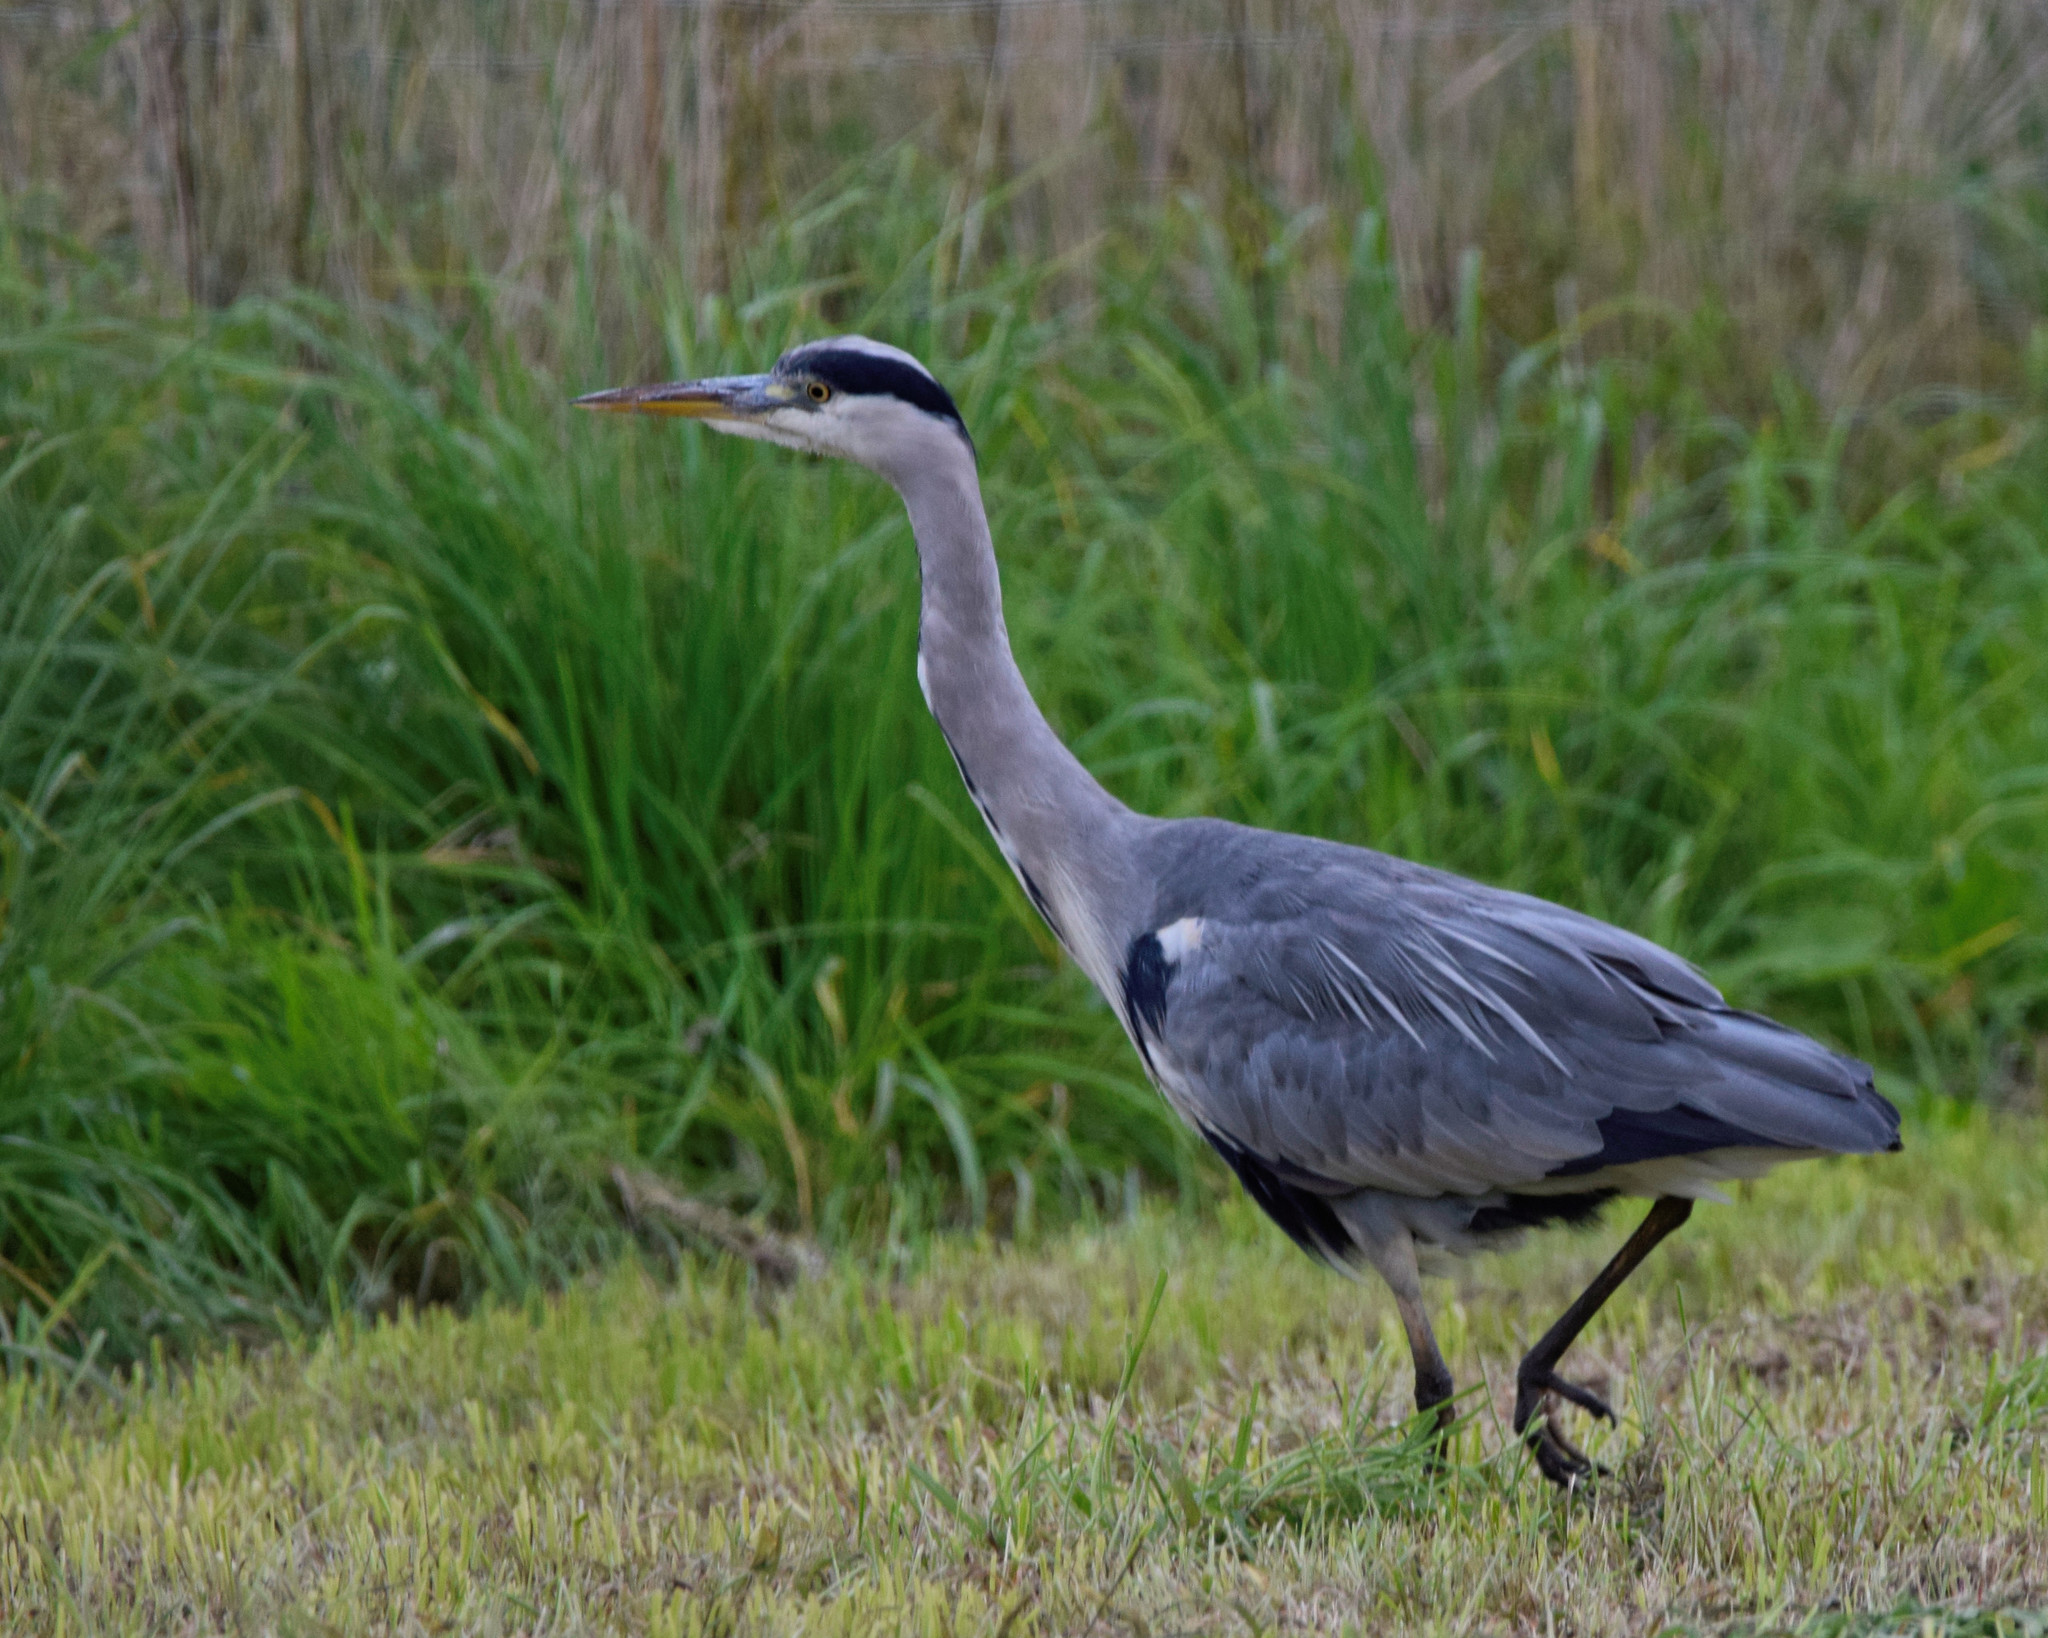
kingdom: Animalia
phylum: Chordata
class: Aves
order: Pelecaniformes
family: Ardeidae
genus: Ardea
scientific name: Ardea cinerea
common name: Grey heron
